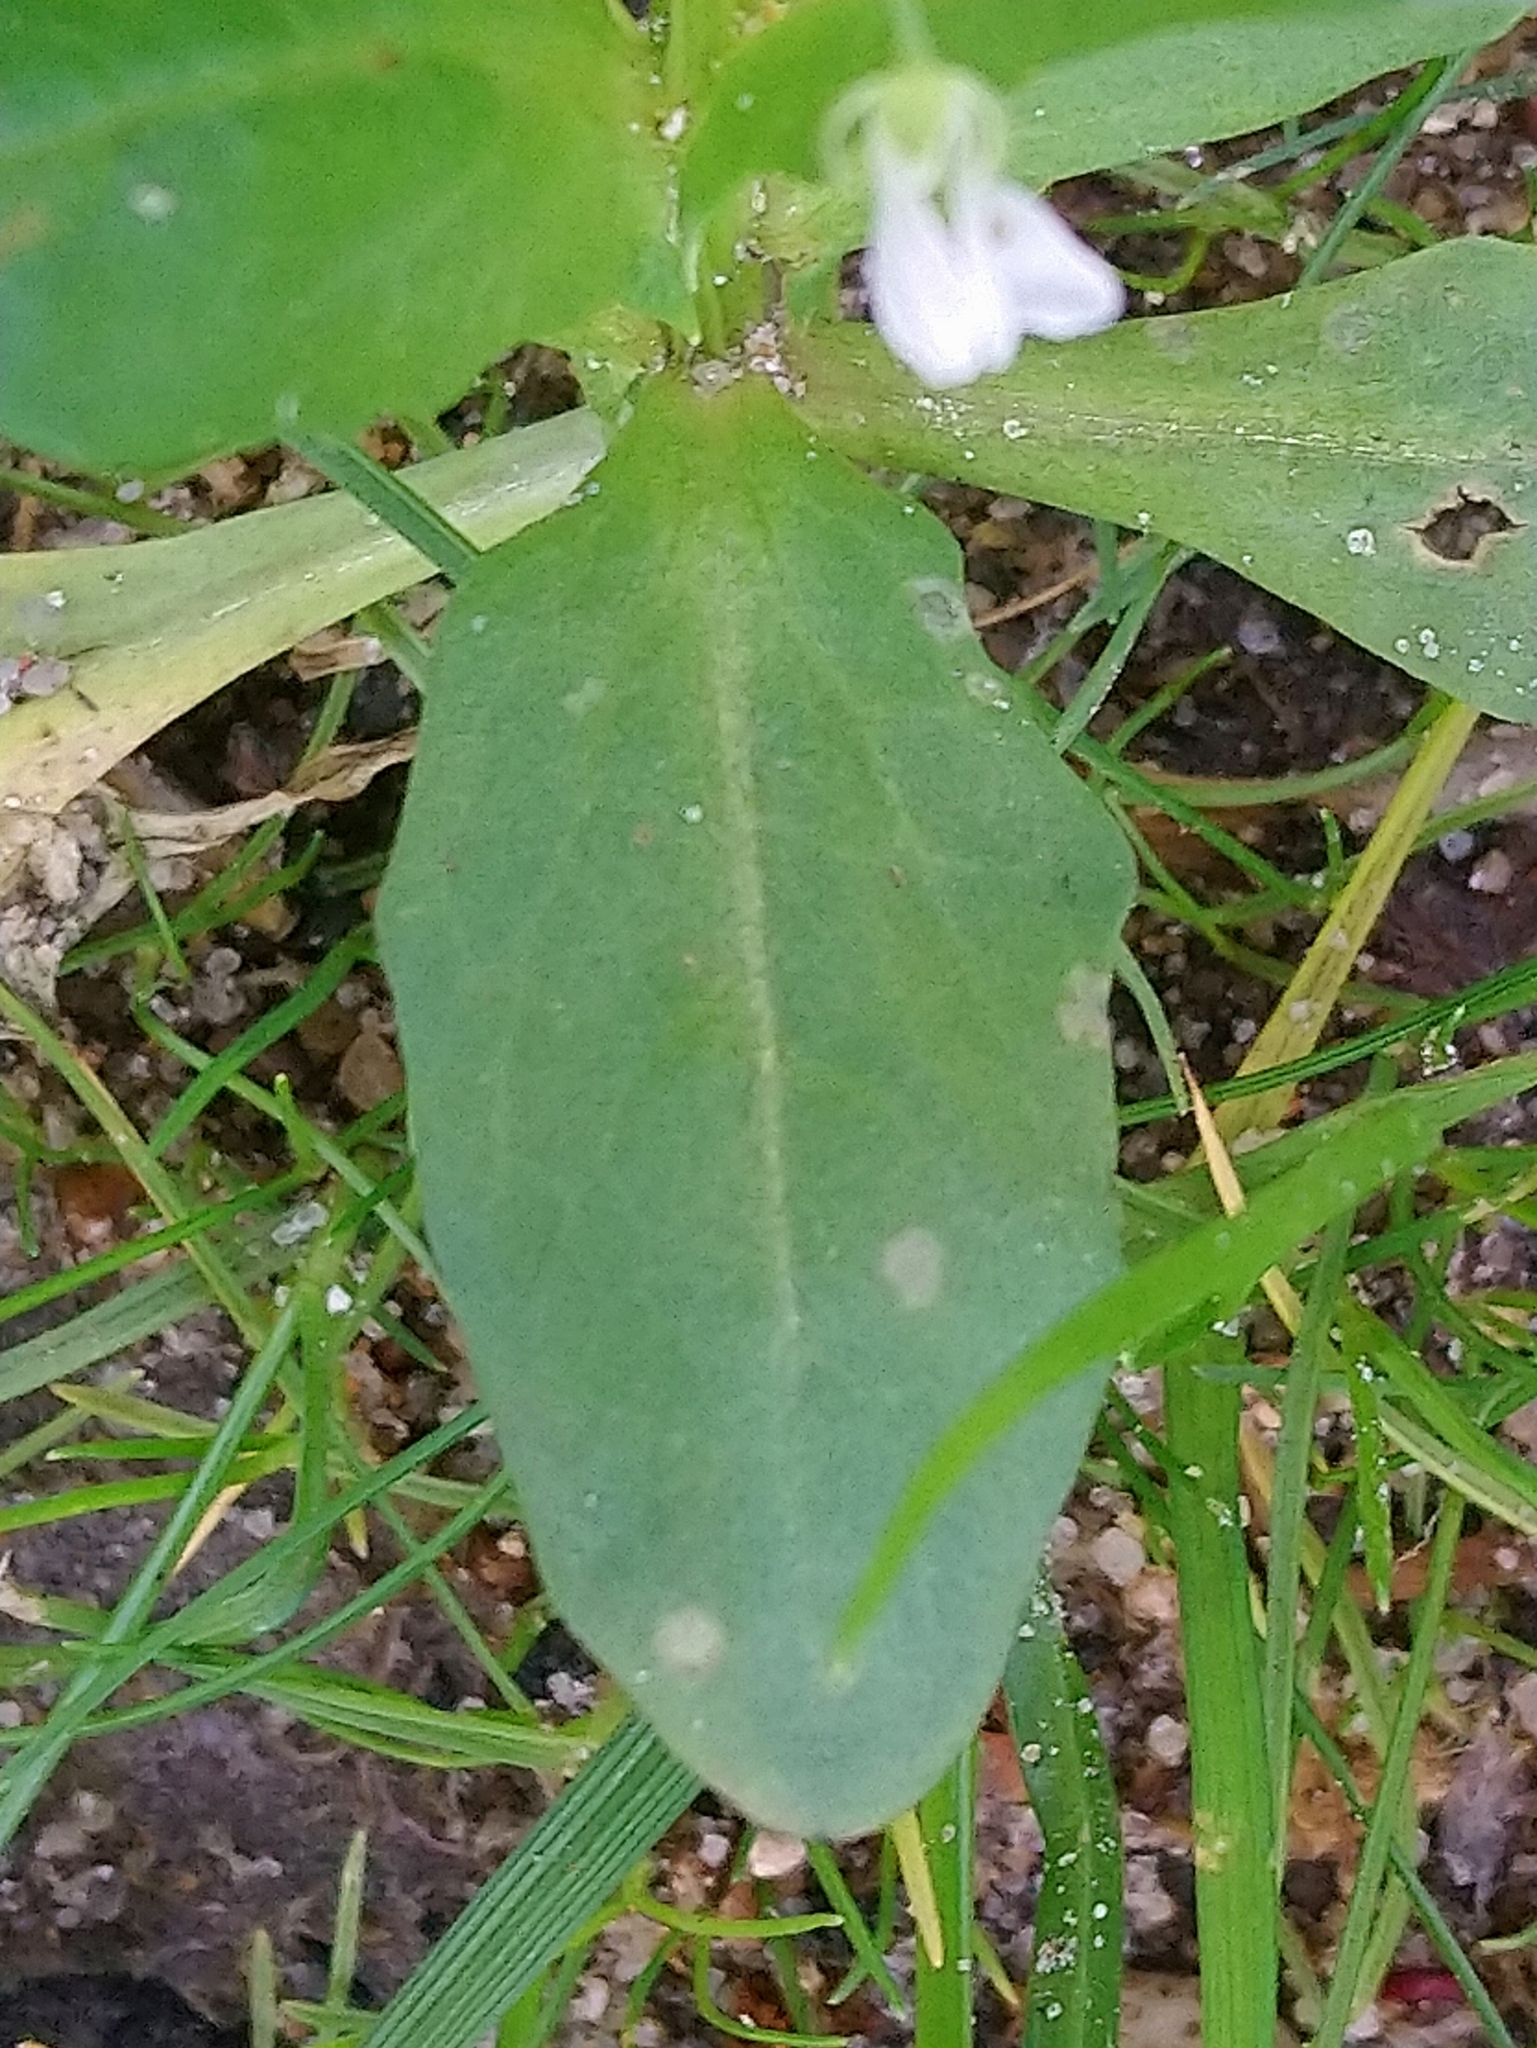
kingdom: Plantae
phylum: Tracheophyta
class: Magnoliopsida
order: Brassicales
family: Brassicaceae
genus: Thlaspi
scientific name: Thlaspi arvense
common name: Field pennycress
